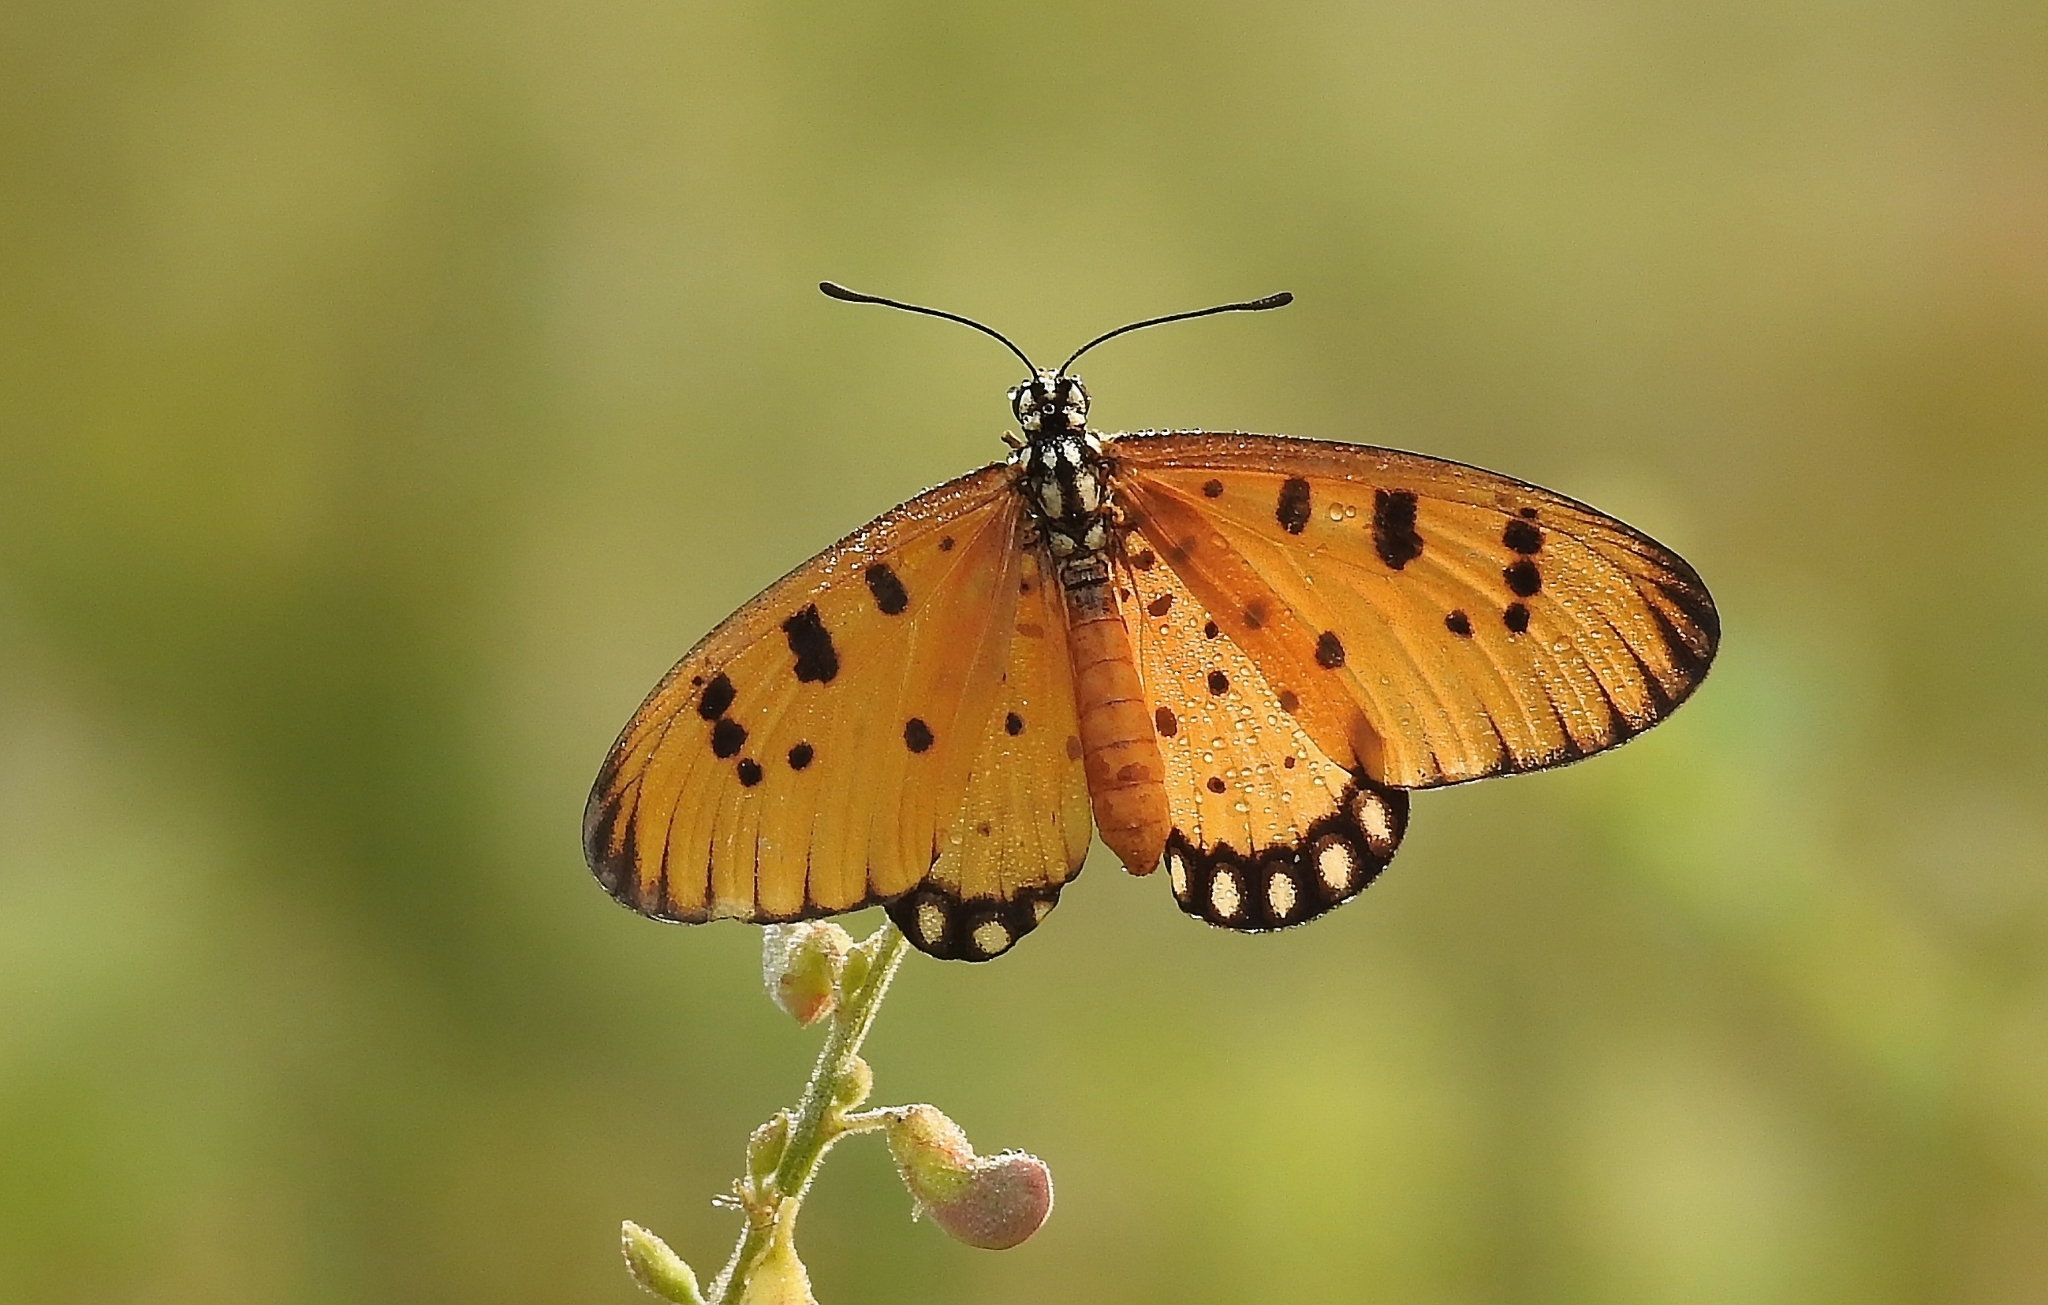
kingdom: Animalia
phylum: Arthropoda
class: Insecta
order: Lepidoptera
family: Nymphalidae
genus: Acraea
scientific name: Acraea terpsicore
